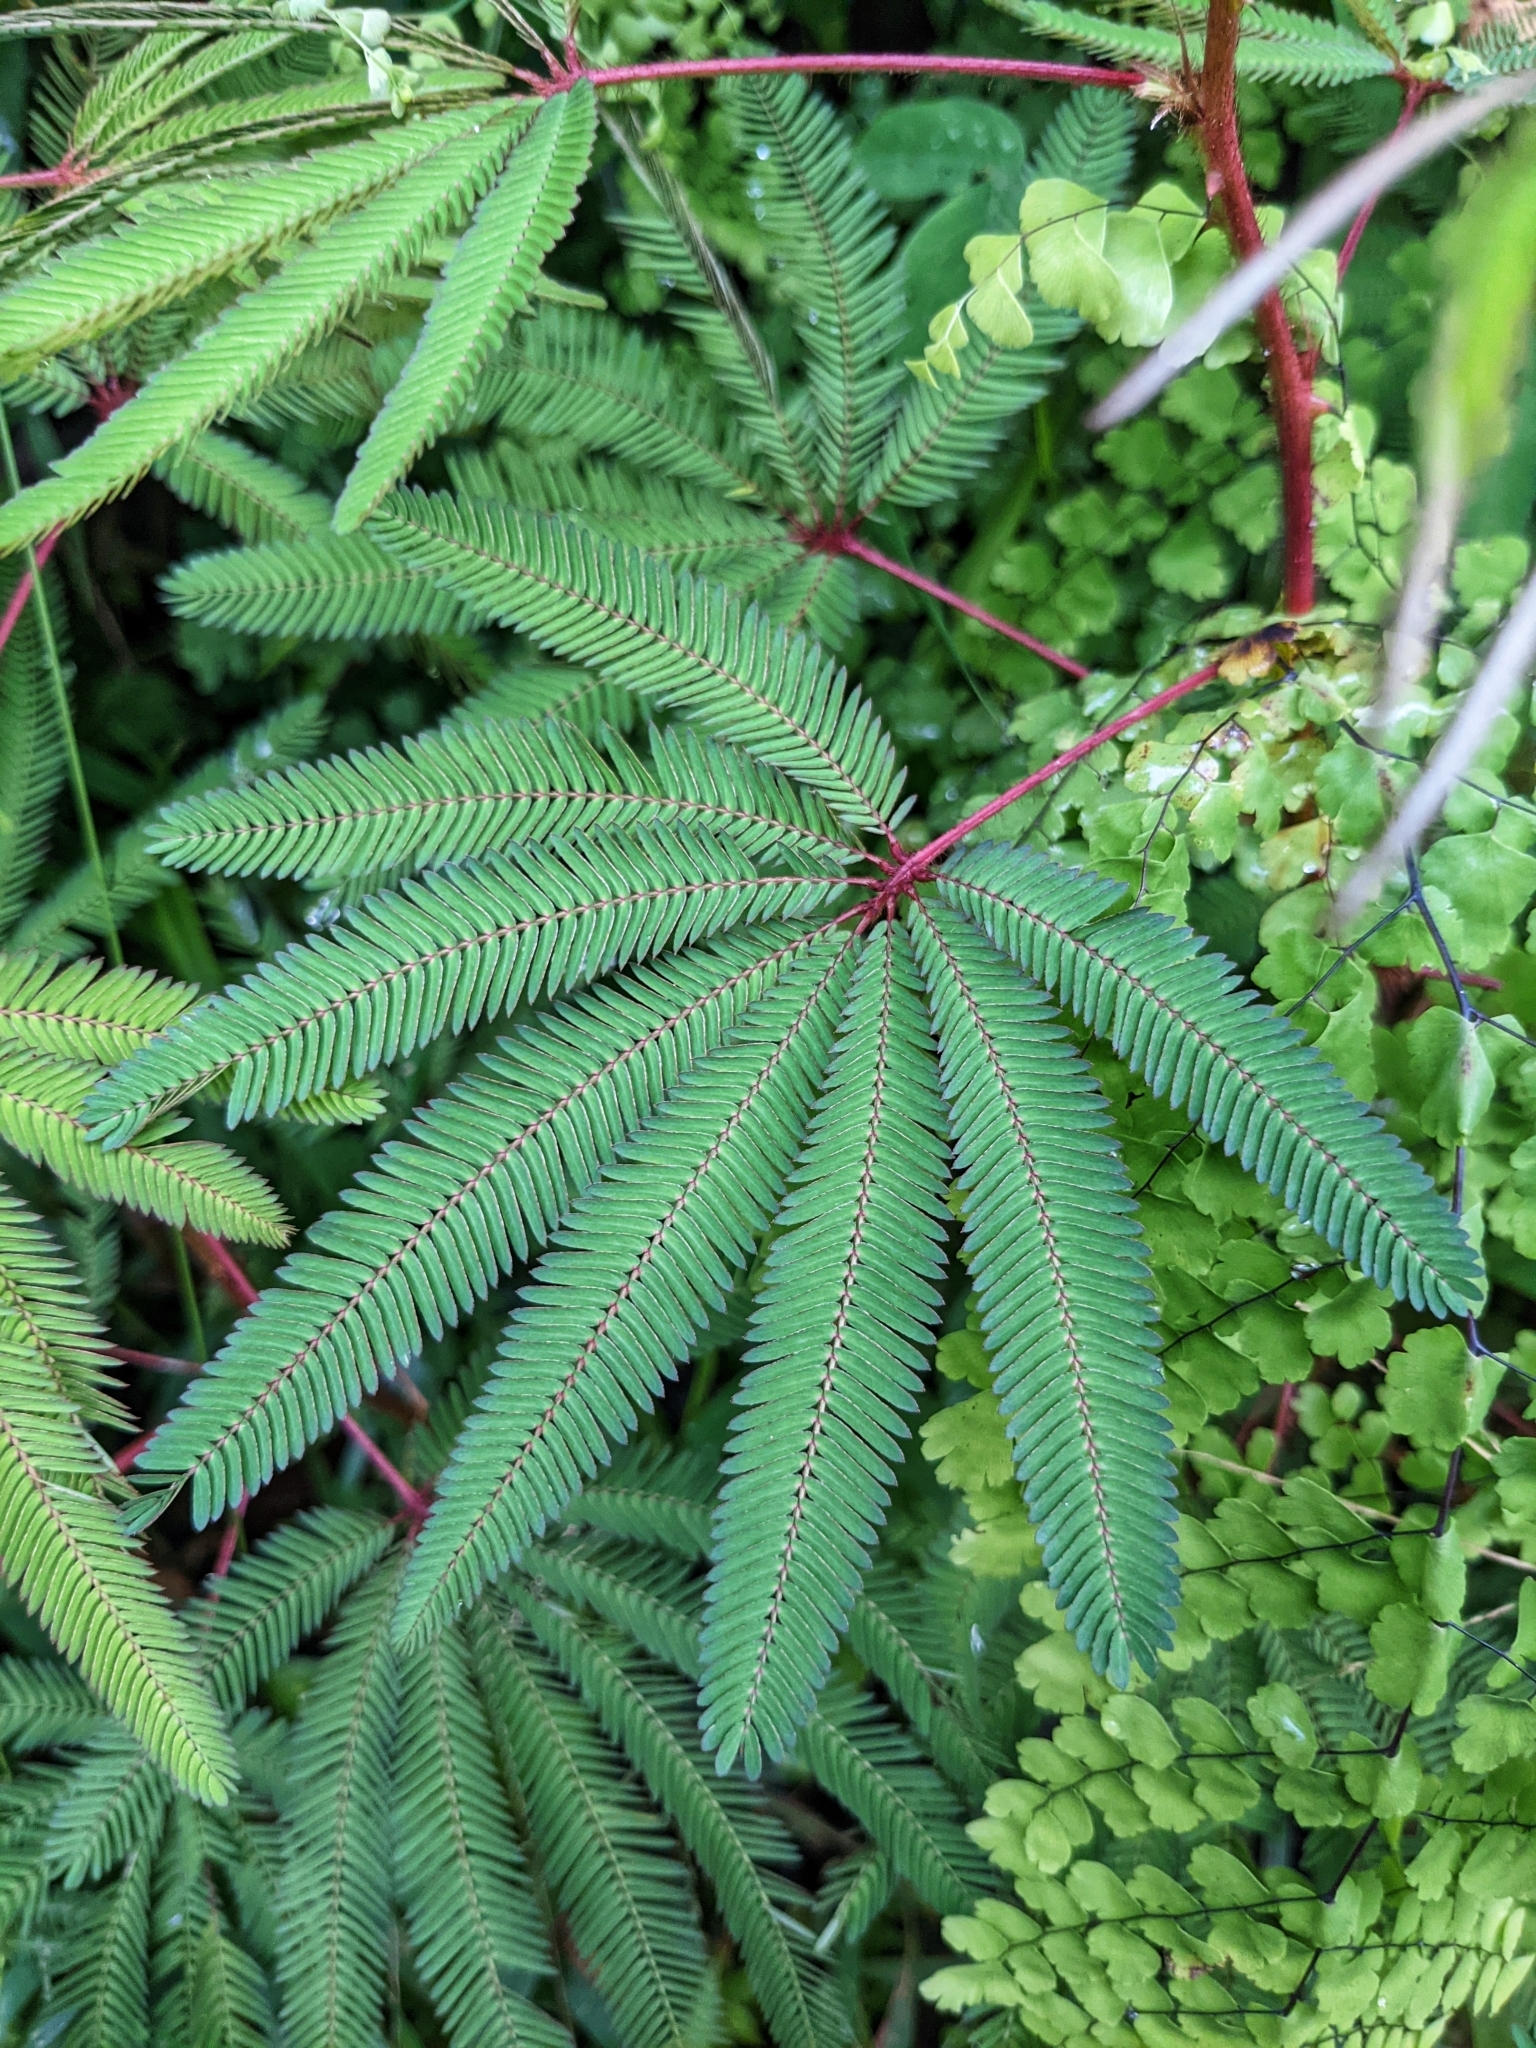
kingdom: Plantae
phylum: Tracheophyta
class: Magnoliopsida
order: Fabales
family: Fabaceae
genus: Mimosa
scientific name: Mimosa pudica
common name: Sensitive plant
